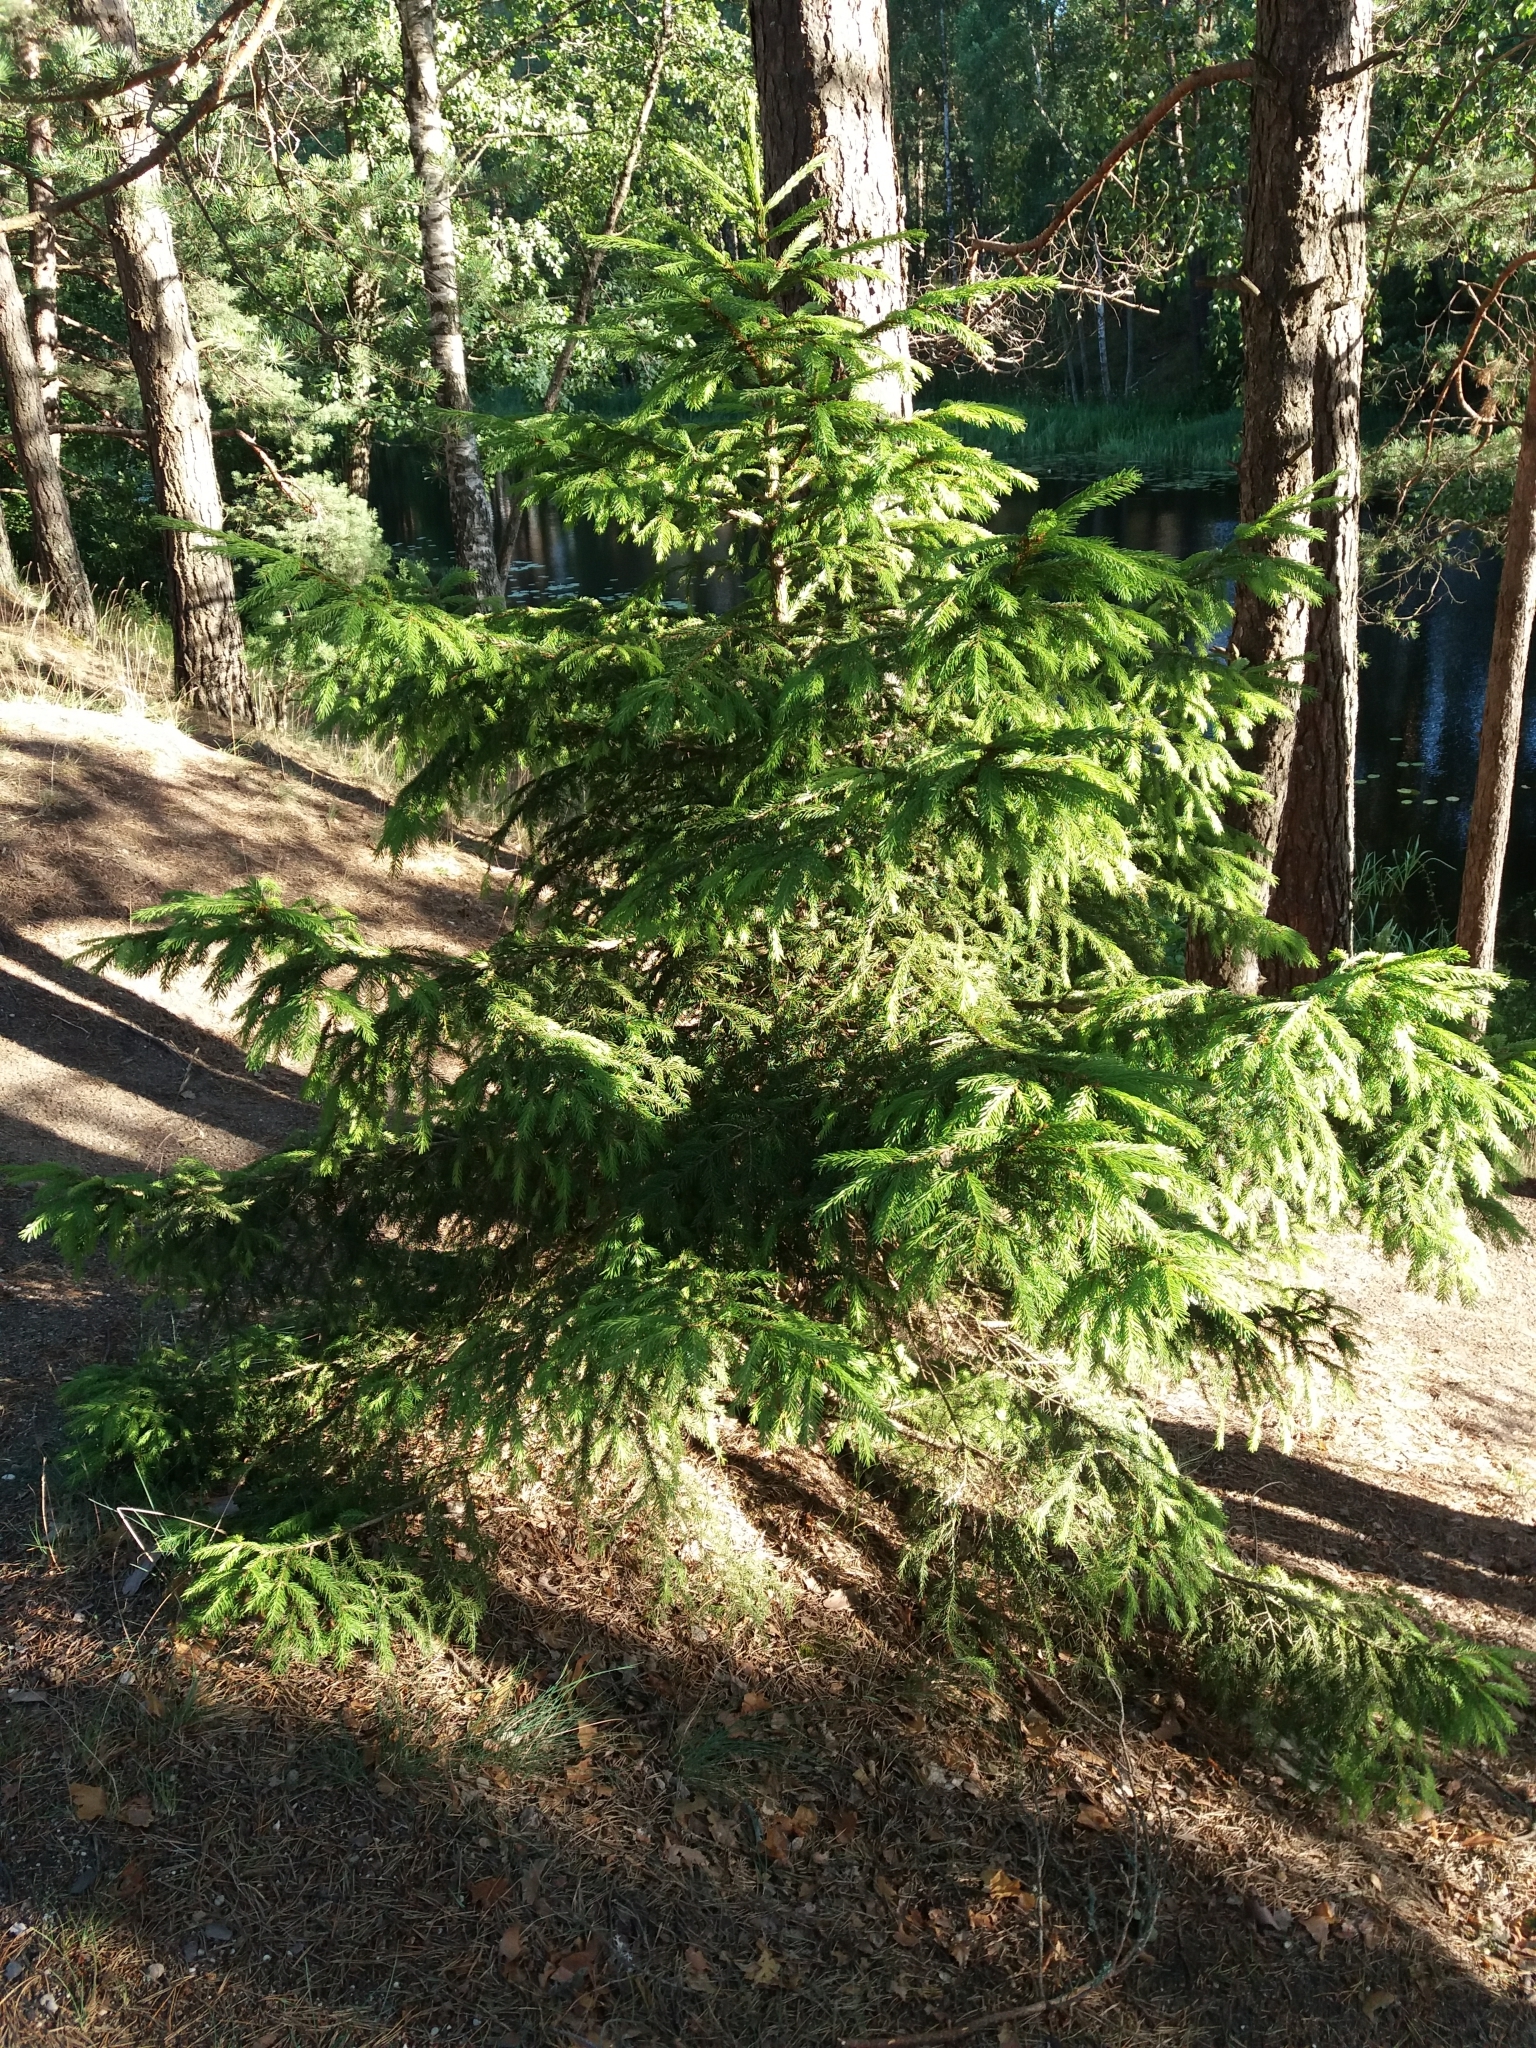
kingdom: Plantae
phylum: Tracheophyta
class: Pinopsida
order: Pinales
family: Pinaceae
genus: Picea
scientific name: Picea abies
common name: Norway spruce
